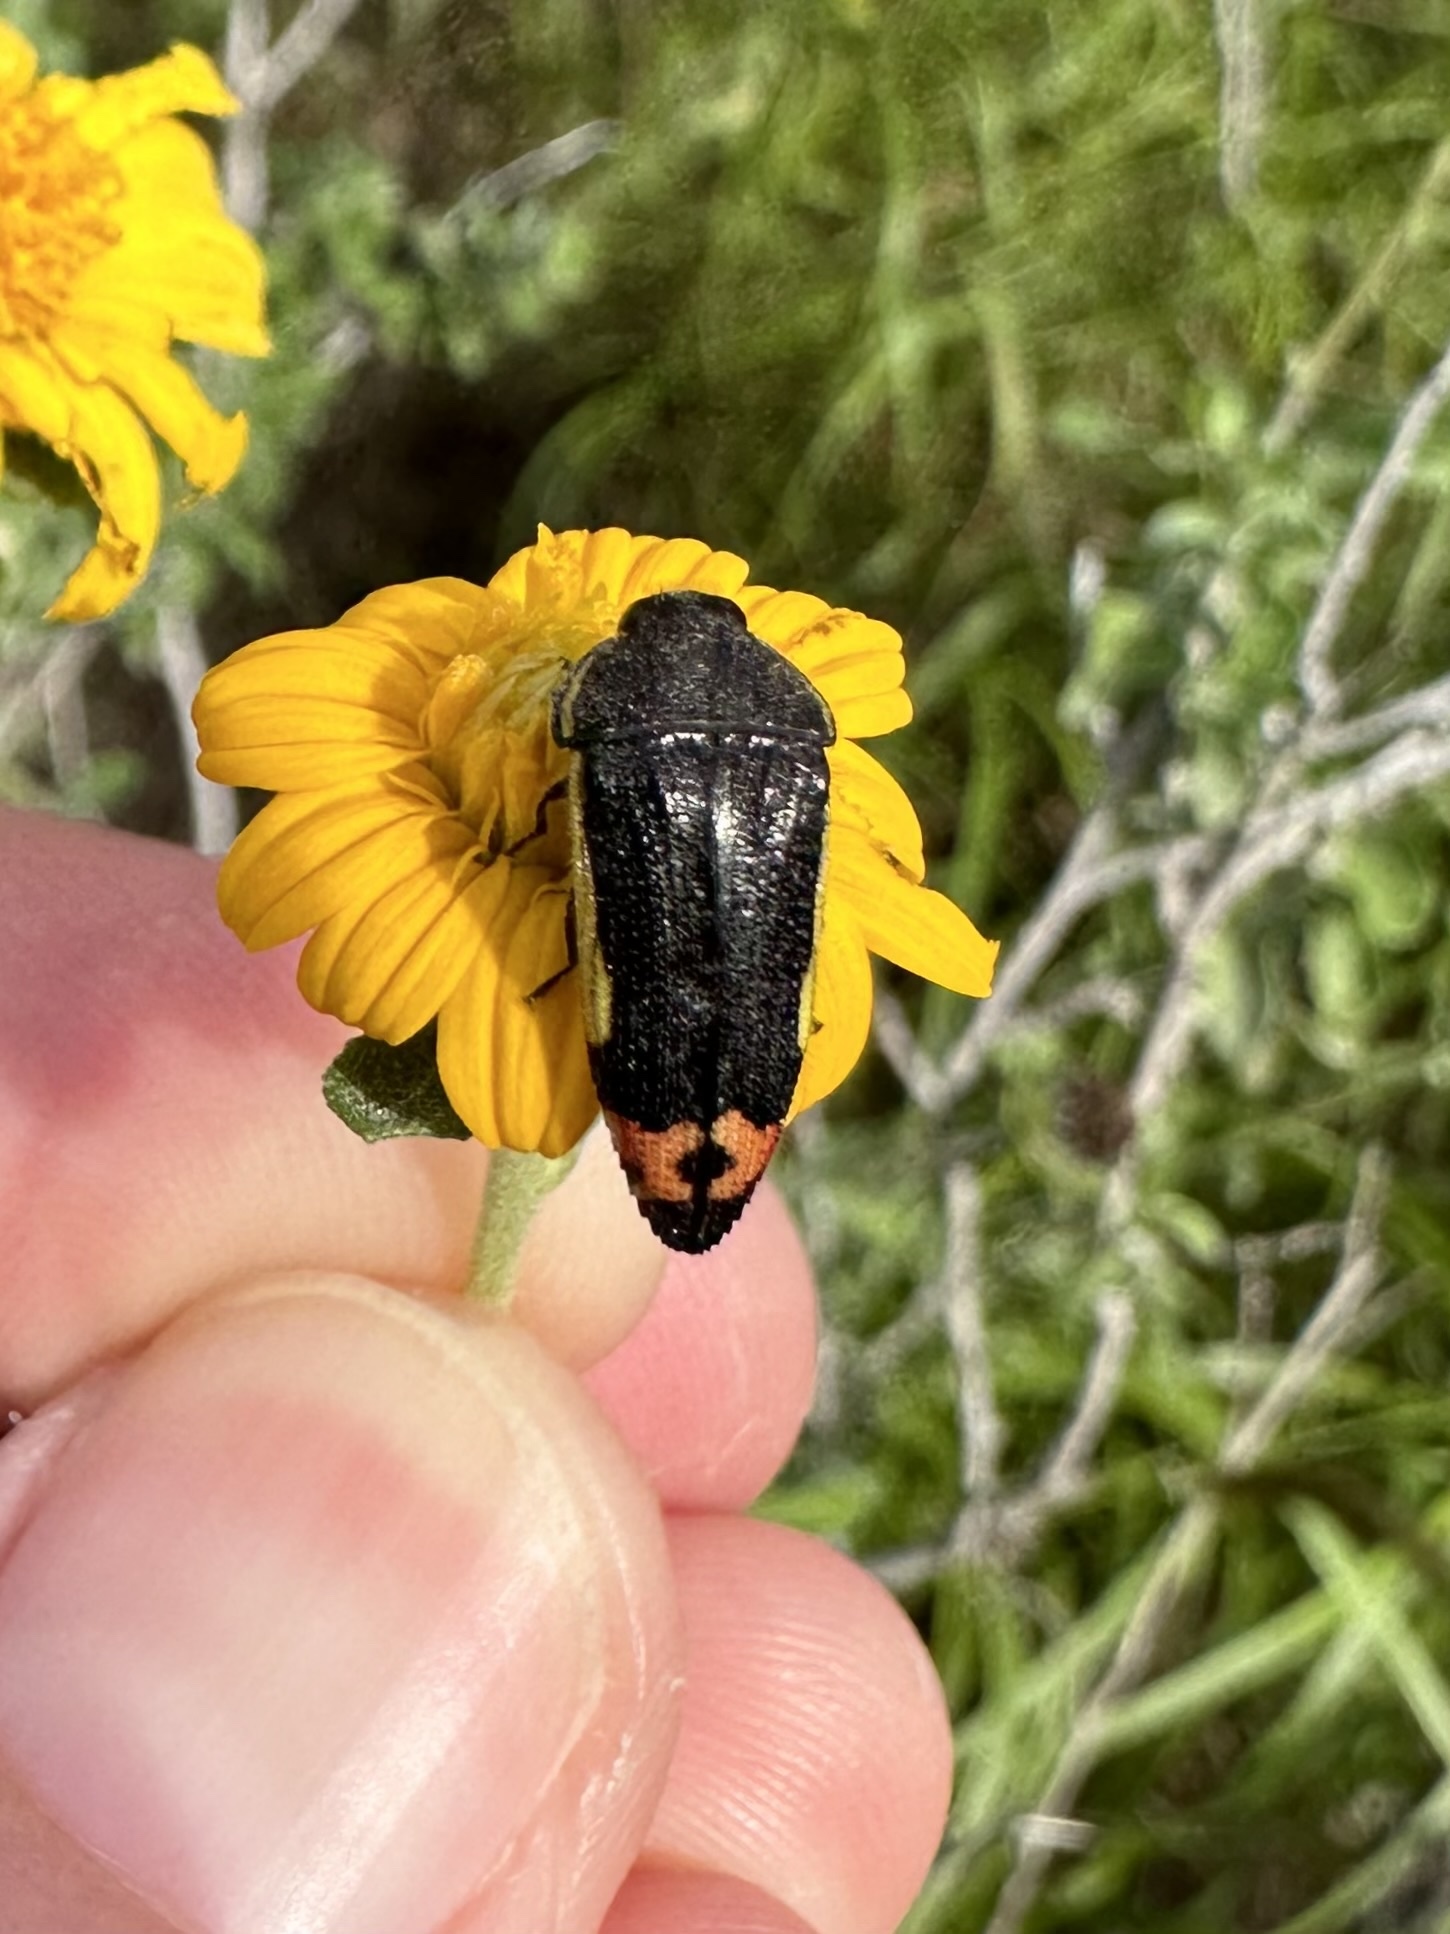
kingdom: Animalia
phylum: Arthropoda
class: Insecta
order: Coleoptera
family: Buprestidae
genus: Acmaeodera
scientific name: Acmaeodera flavomarginata
